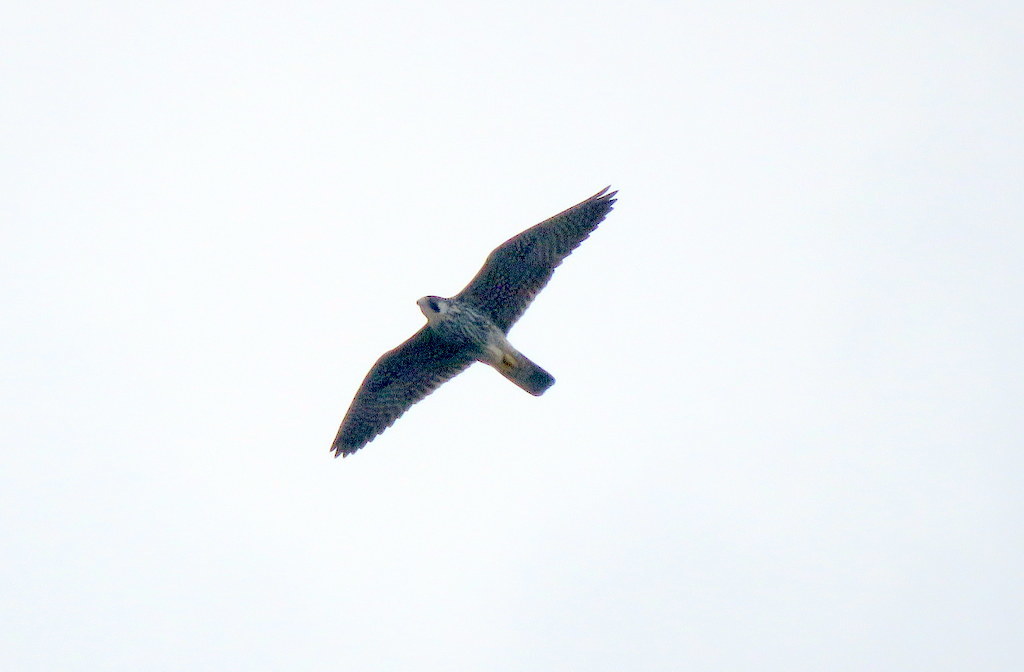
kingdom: Animalia
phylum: Chordata
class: Aves
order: Falconiformes
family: Falconidae
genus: Falco
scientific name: Falco peregrinus
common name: Peregrine falcon
